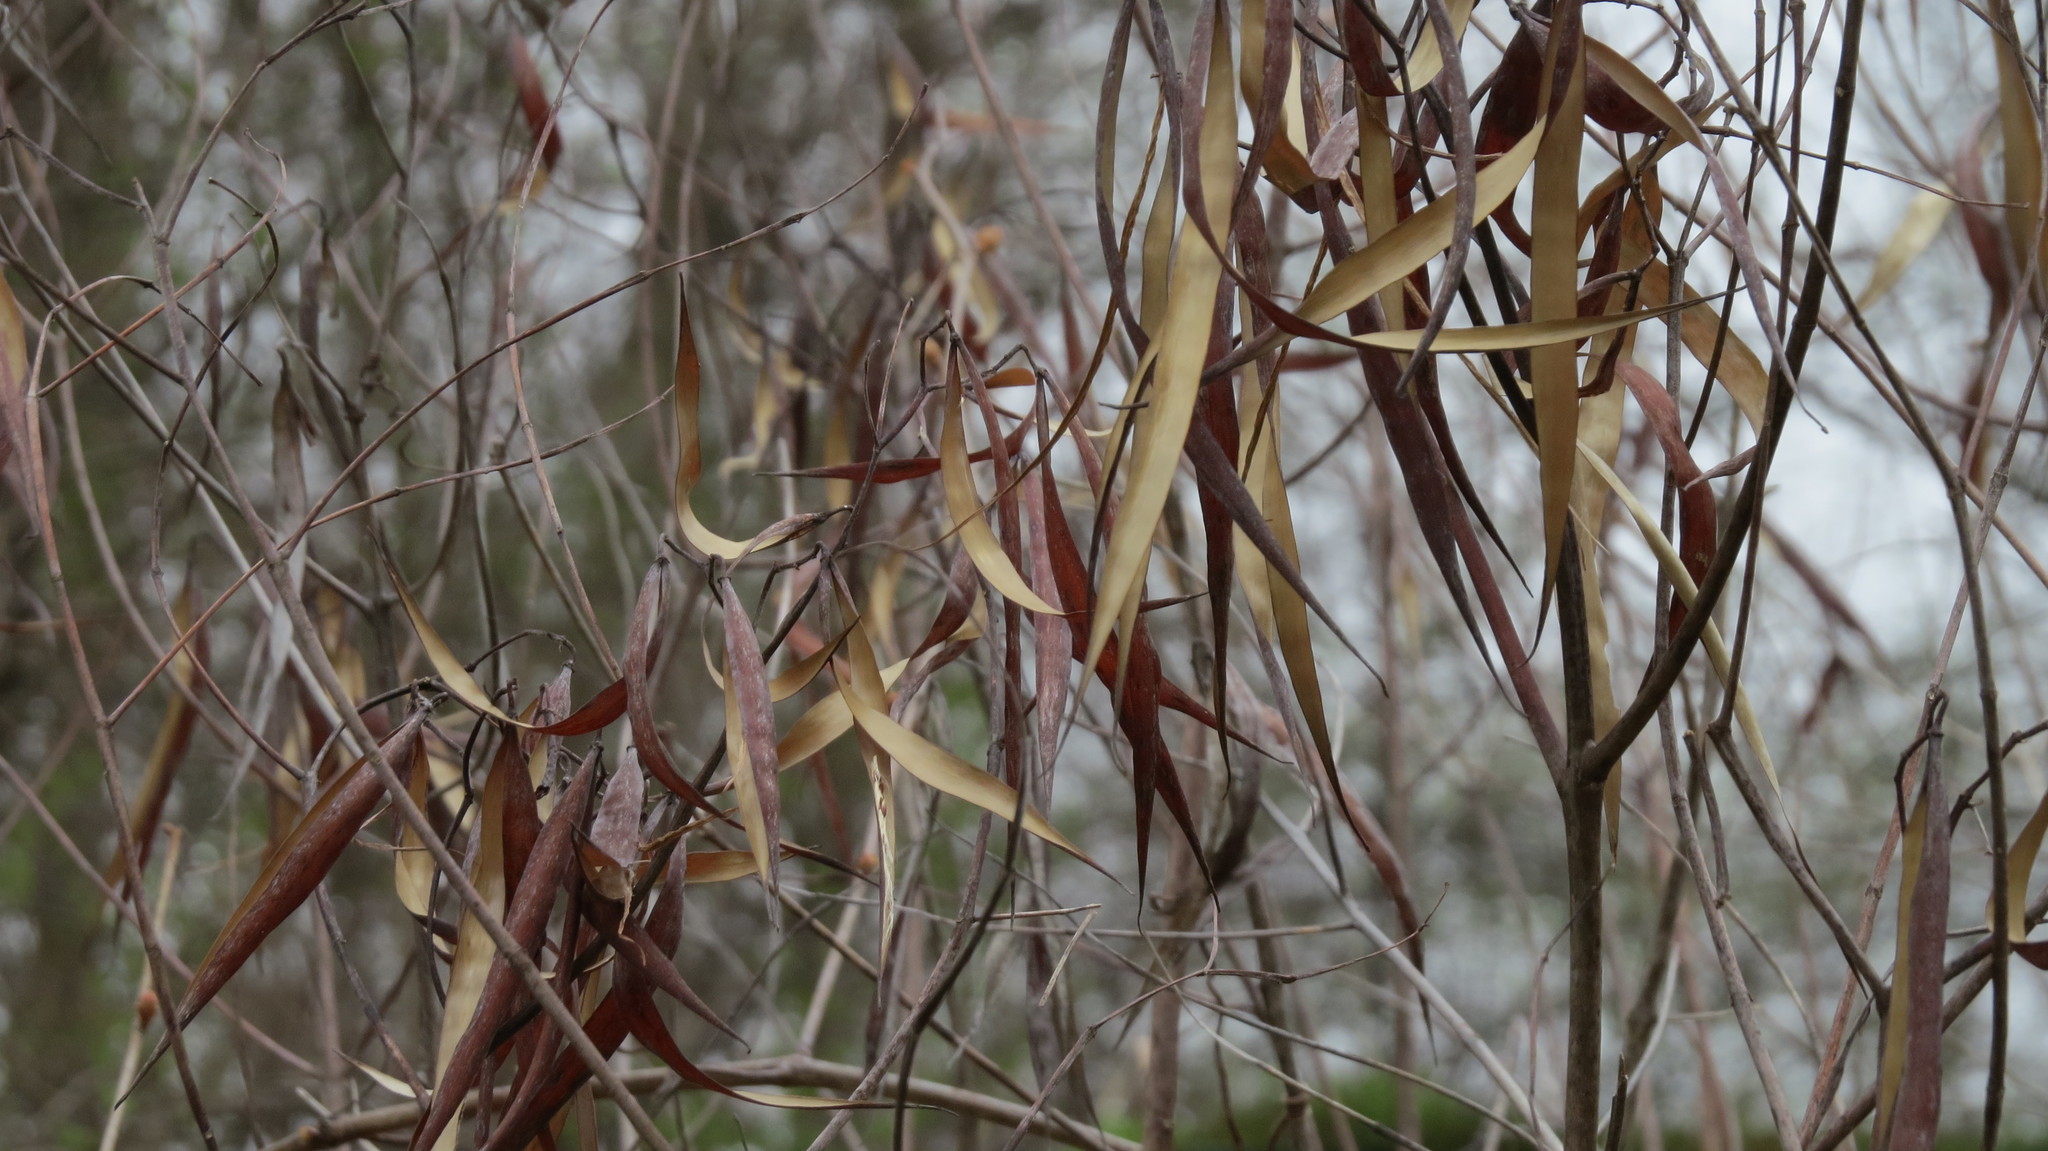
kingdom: Plantae
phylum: Tracheophyta
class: Magnoliopsida
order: Gentianales
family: Apocynaceae
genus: Apocynum
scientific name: Apocynum cannabinum
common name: Hemp dogbane
